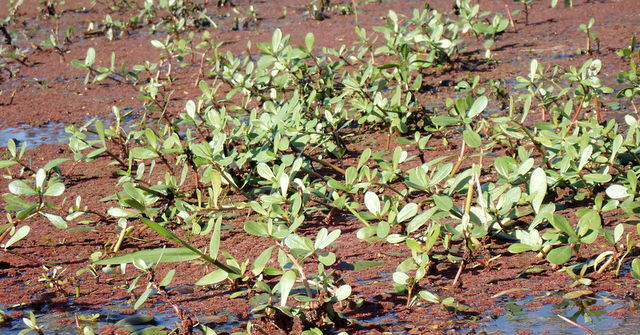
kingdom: Plantae
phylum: Tracheophyta
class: Magnoliopsida
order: Caryophyllales
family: Amaranthaceae
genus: Alternanthera
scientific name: Alternanthera philoxeroides
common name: Alligatorweed
